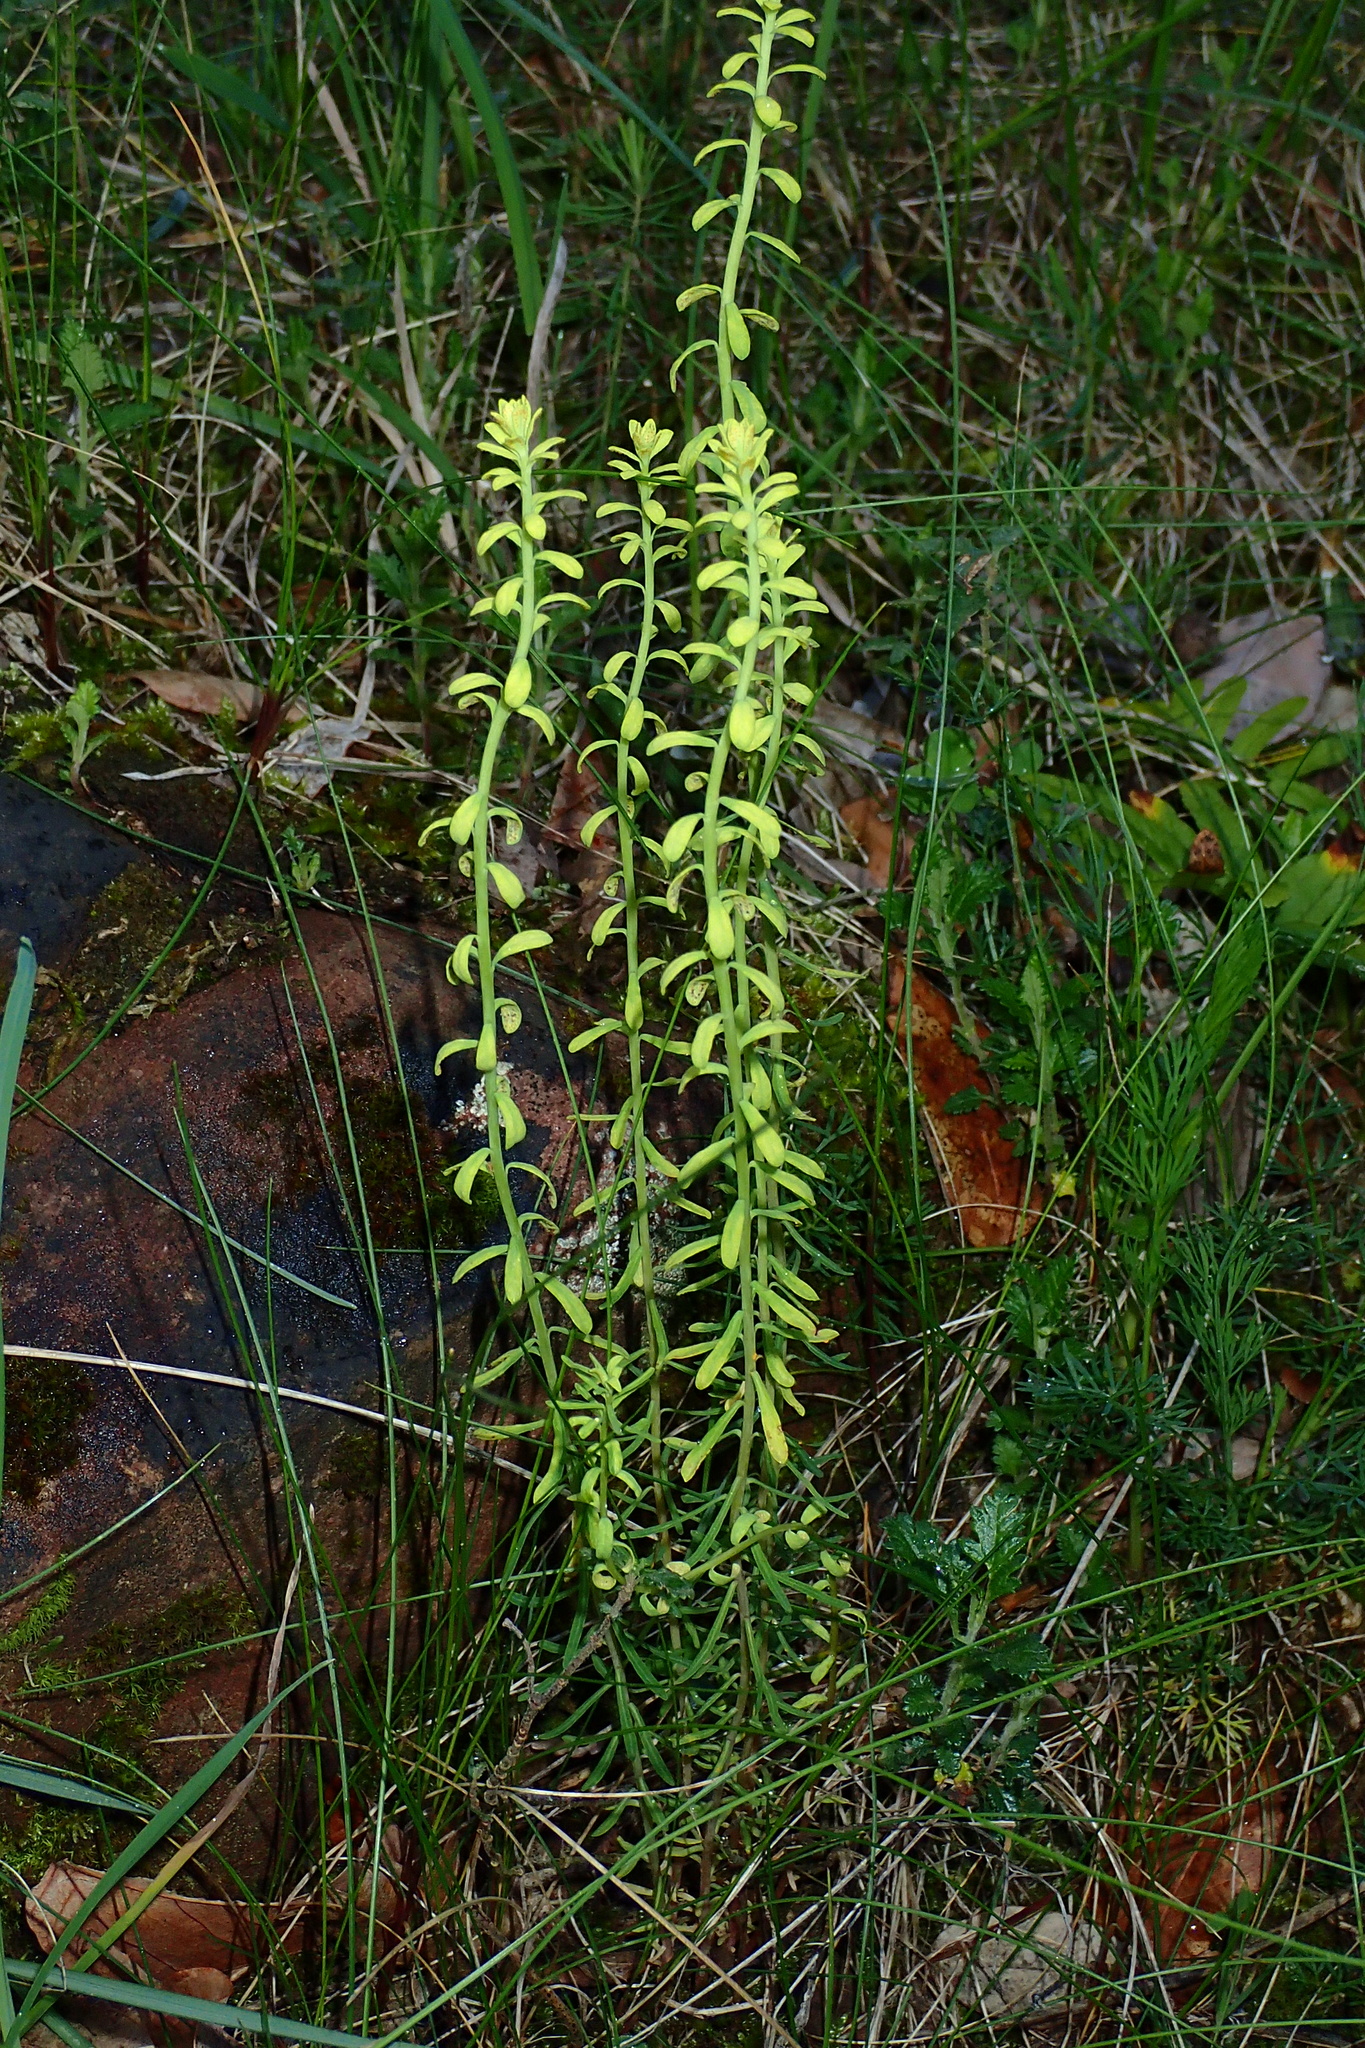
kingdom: Plantae
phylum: Tracheophyta
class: Magnoliopsida
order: Malpighiales
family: Euphorbiaceae
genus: Euphorbia
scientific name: Euphorbia cyparissias
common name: Cypress spurge
